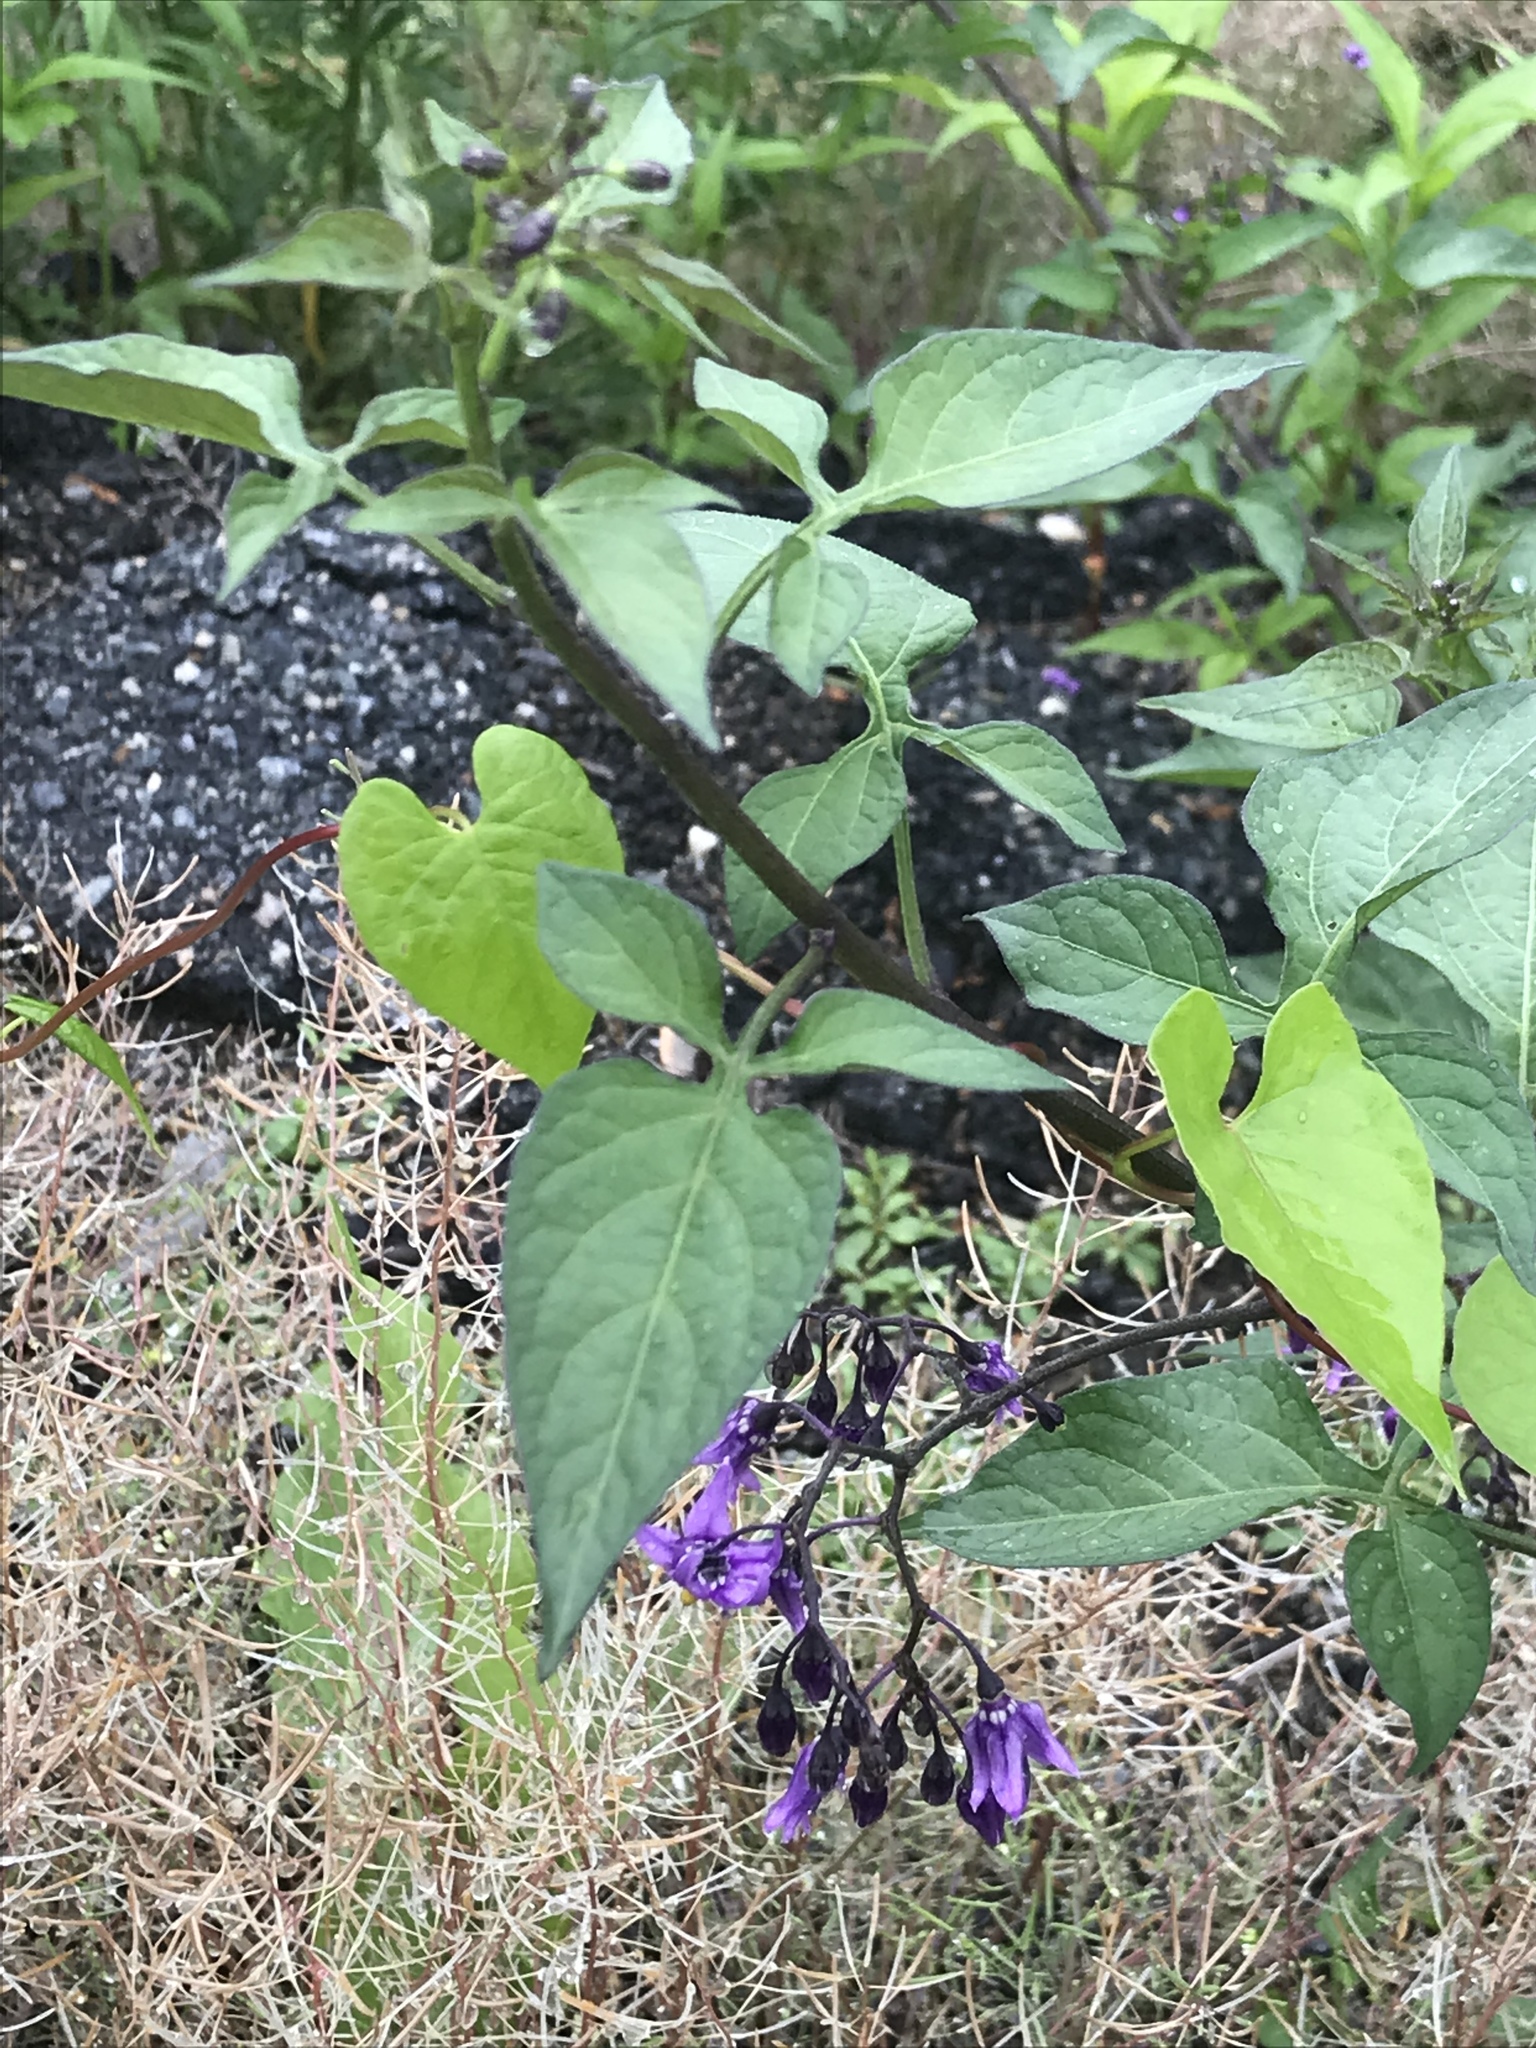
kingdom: Plantae
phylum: Tracheophyta
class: Magnoliopsida
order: Solanales
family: Solanaceae
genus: Solanum
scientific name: Solanum dulcamara
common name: Climbing nightshade
